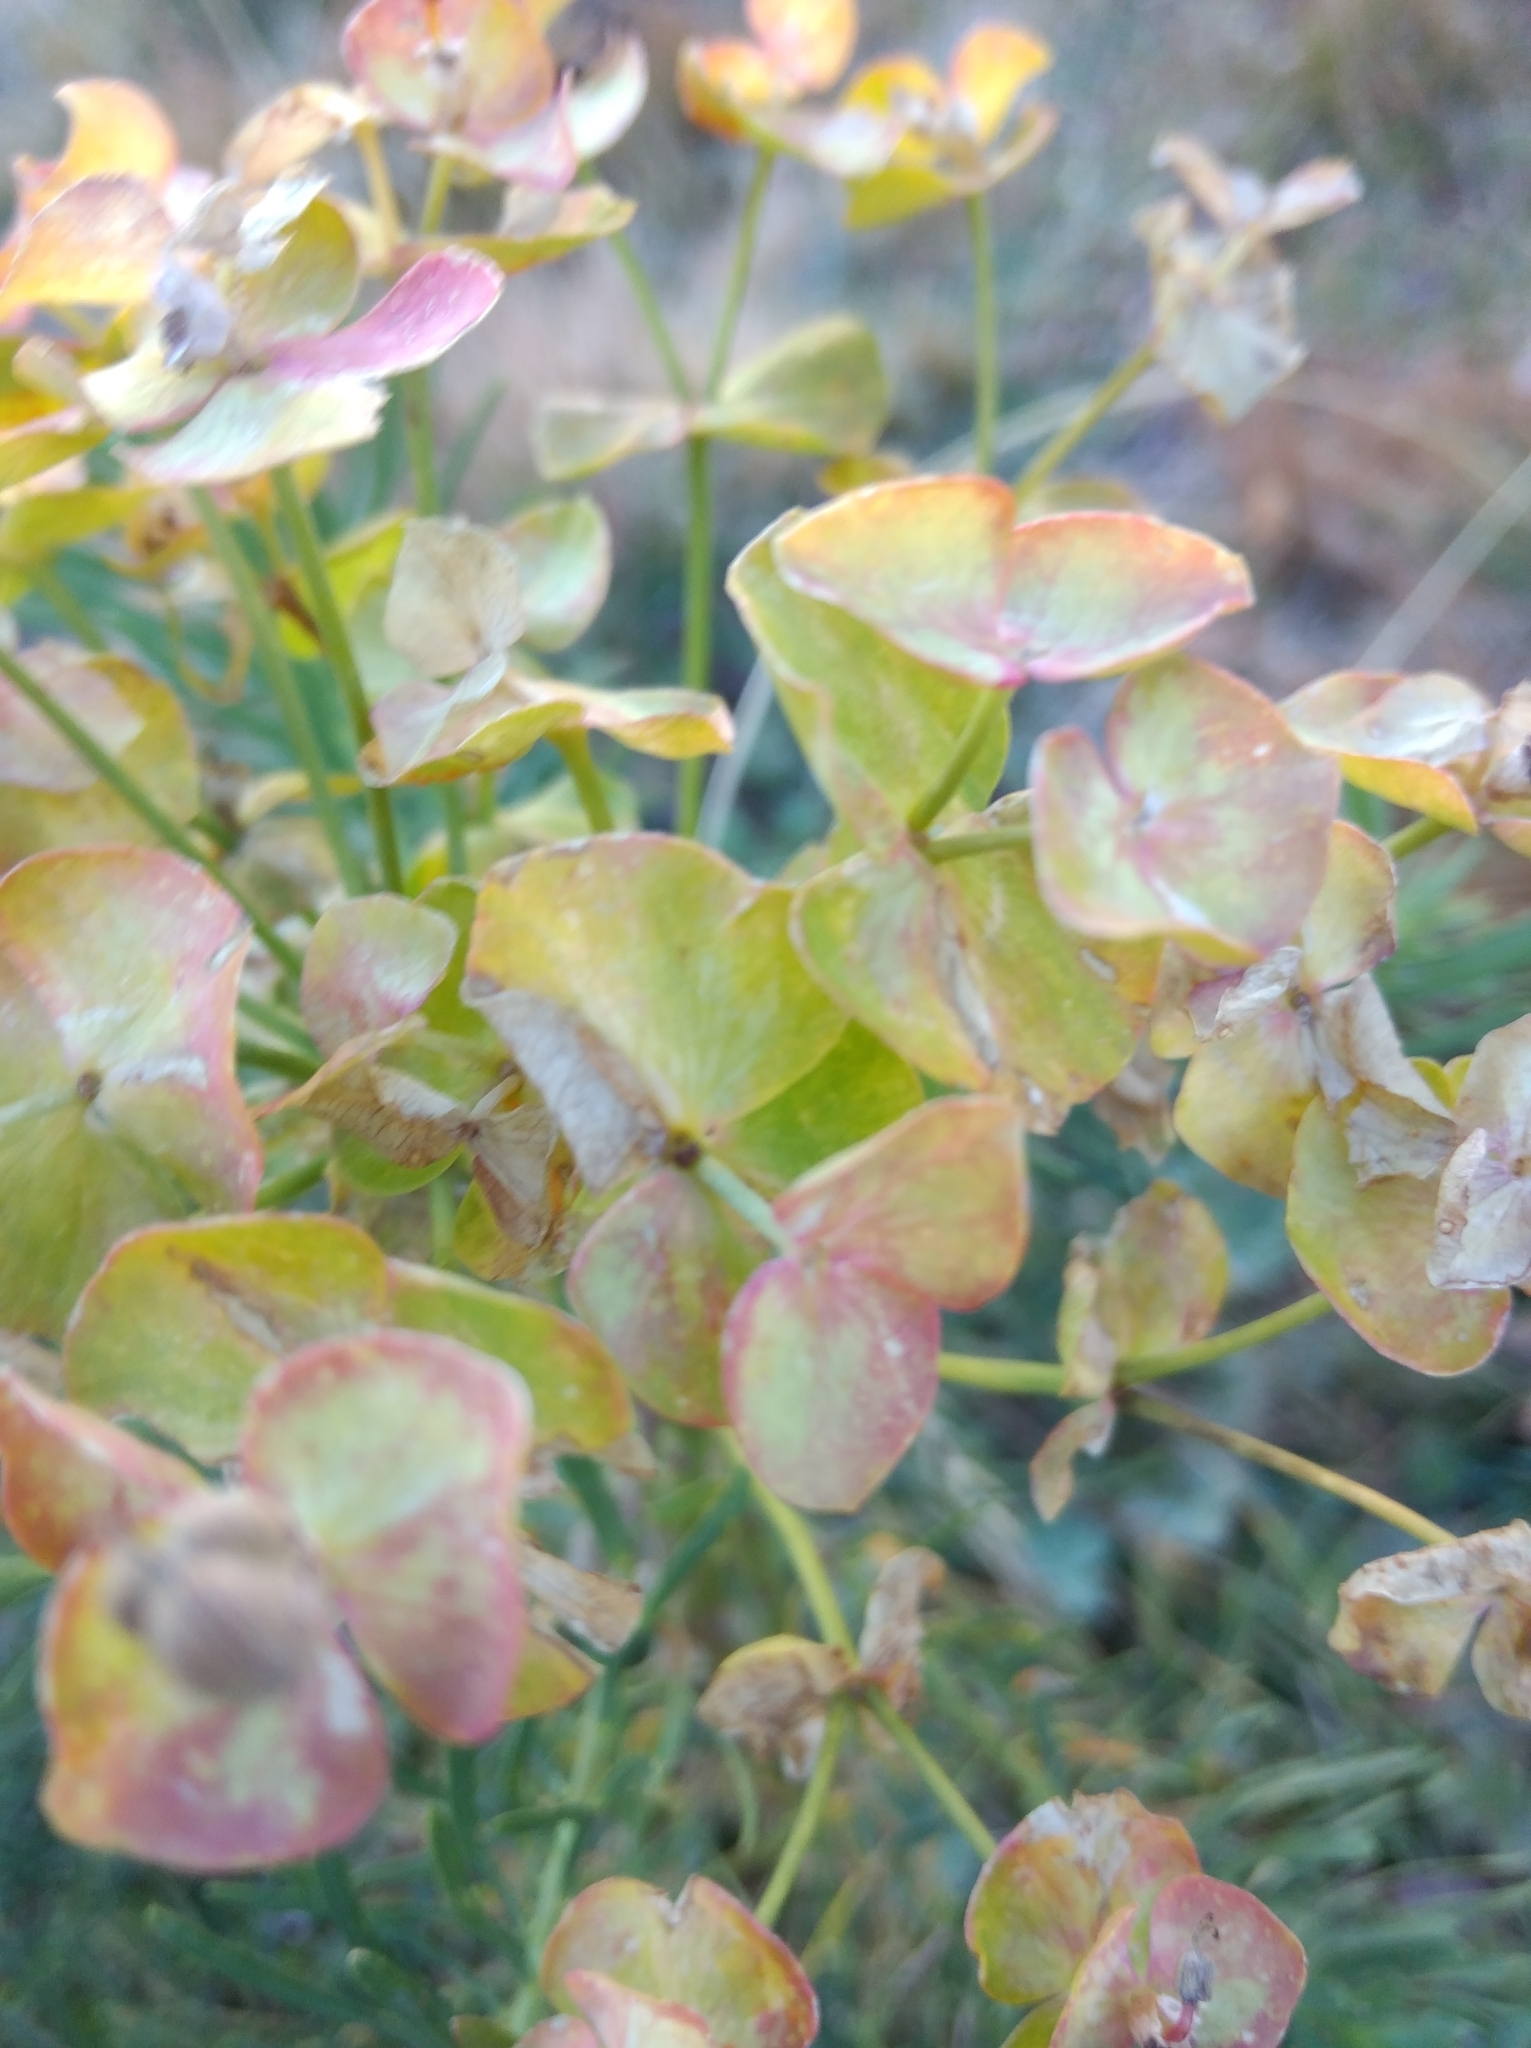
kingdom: Plantae
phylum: Tracheophyta
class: Magnoliopsida
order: Malpighiales
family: Euphorbiaceae
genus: Euphorbia
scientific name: Euphorbia cyparissias
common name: Cypress spurge
